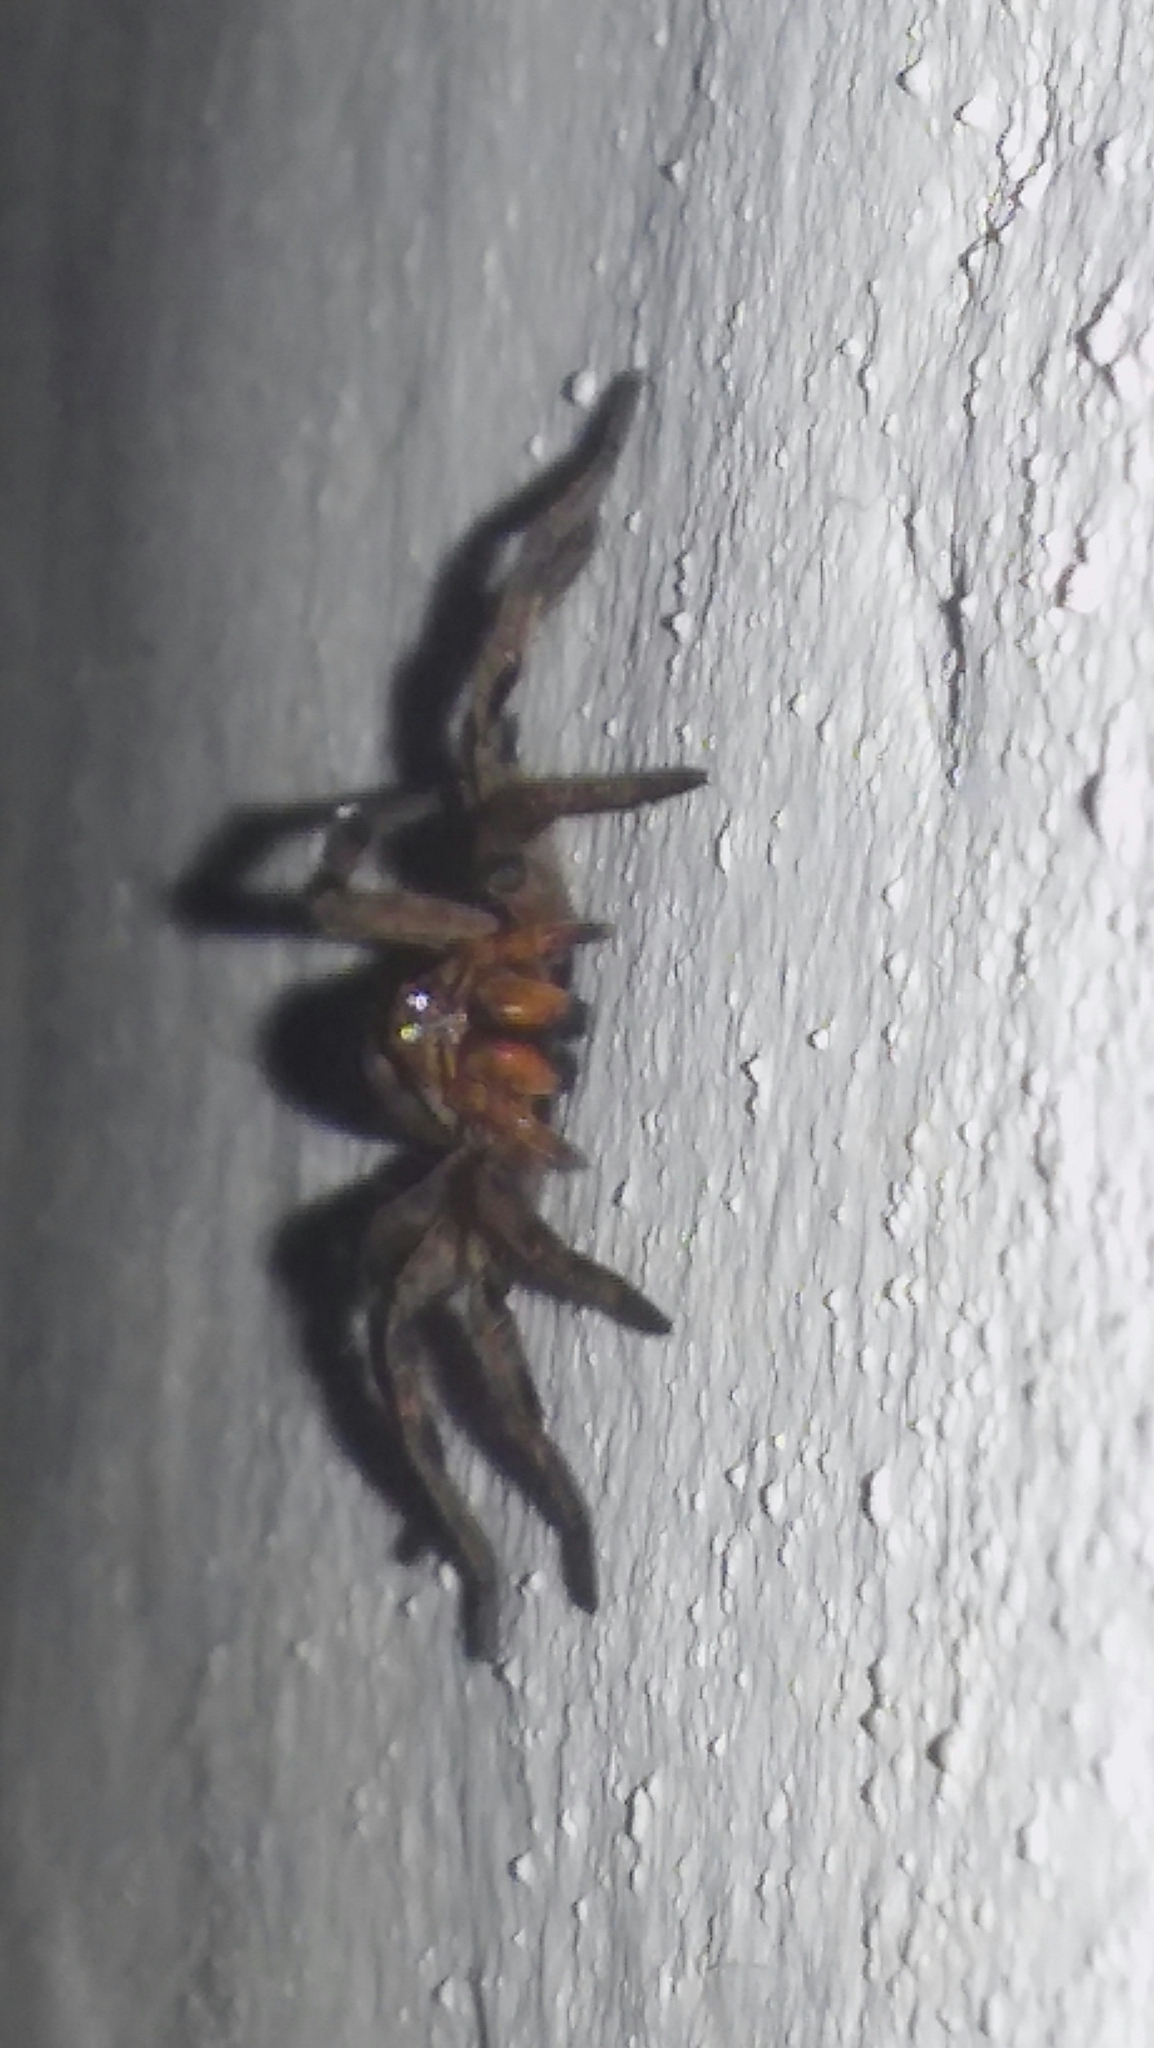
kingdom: Animalia
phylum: Arthropoda
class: Arachnida
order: Araneae
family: Lycosidae
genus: Lycosa
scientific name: Lycosa erythrognatha
